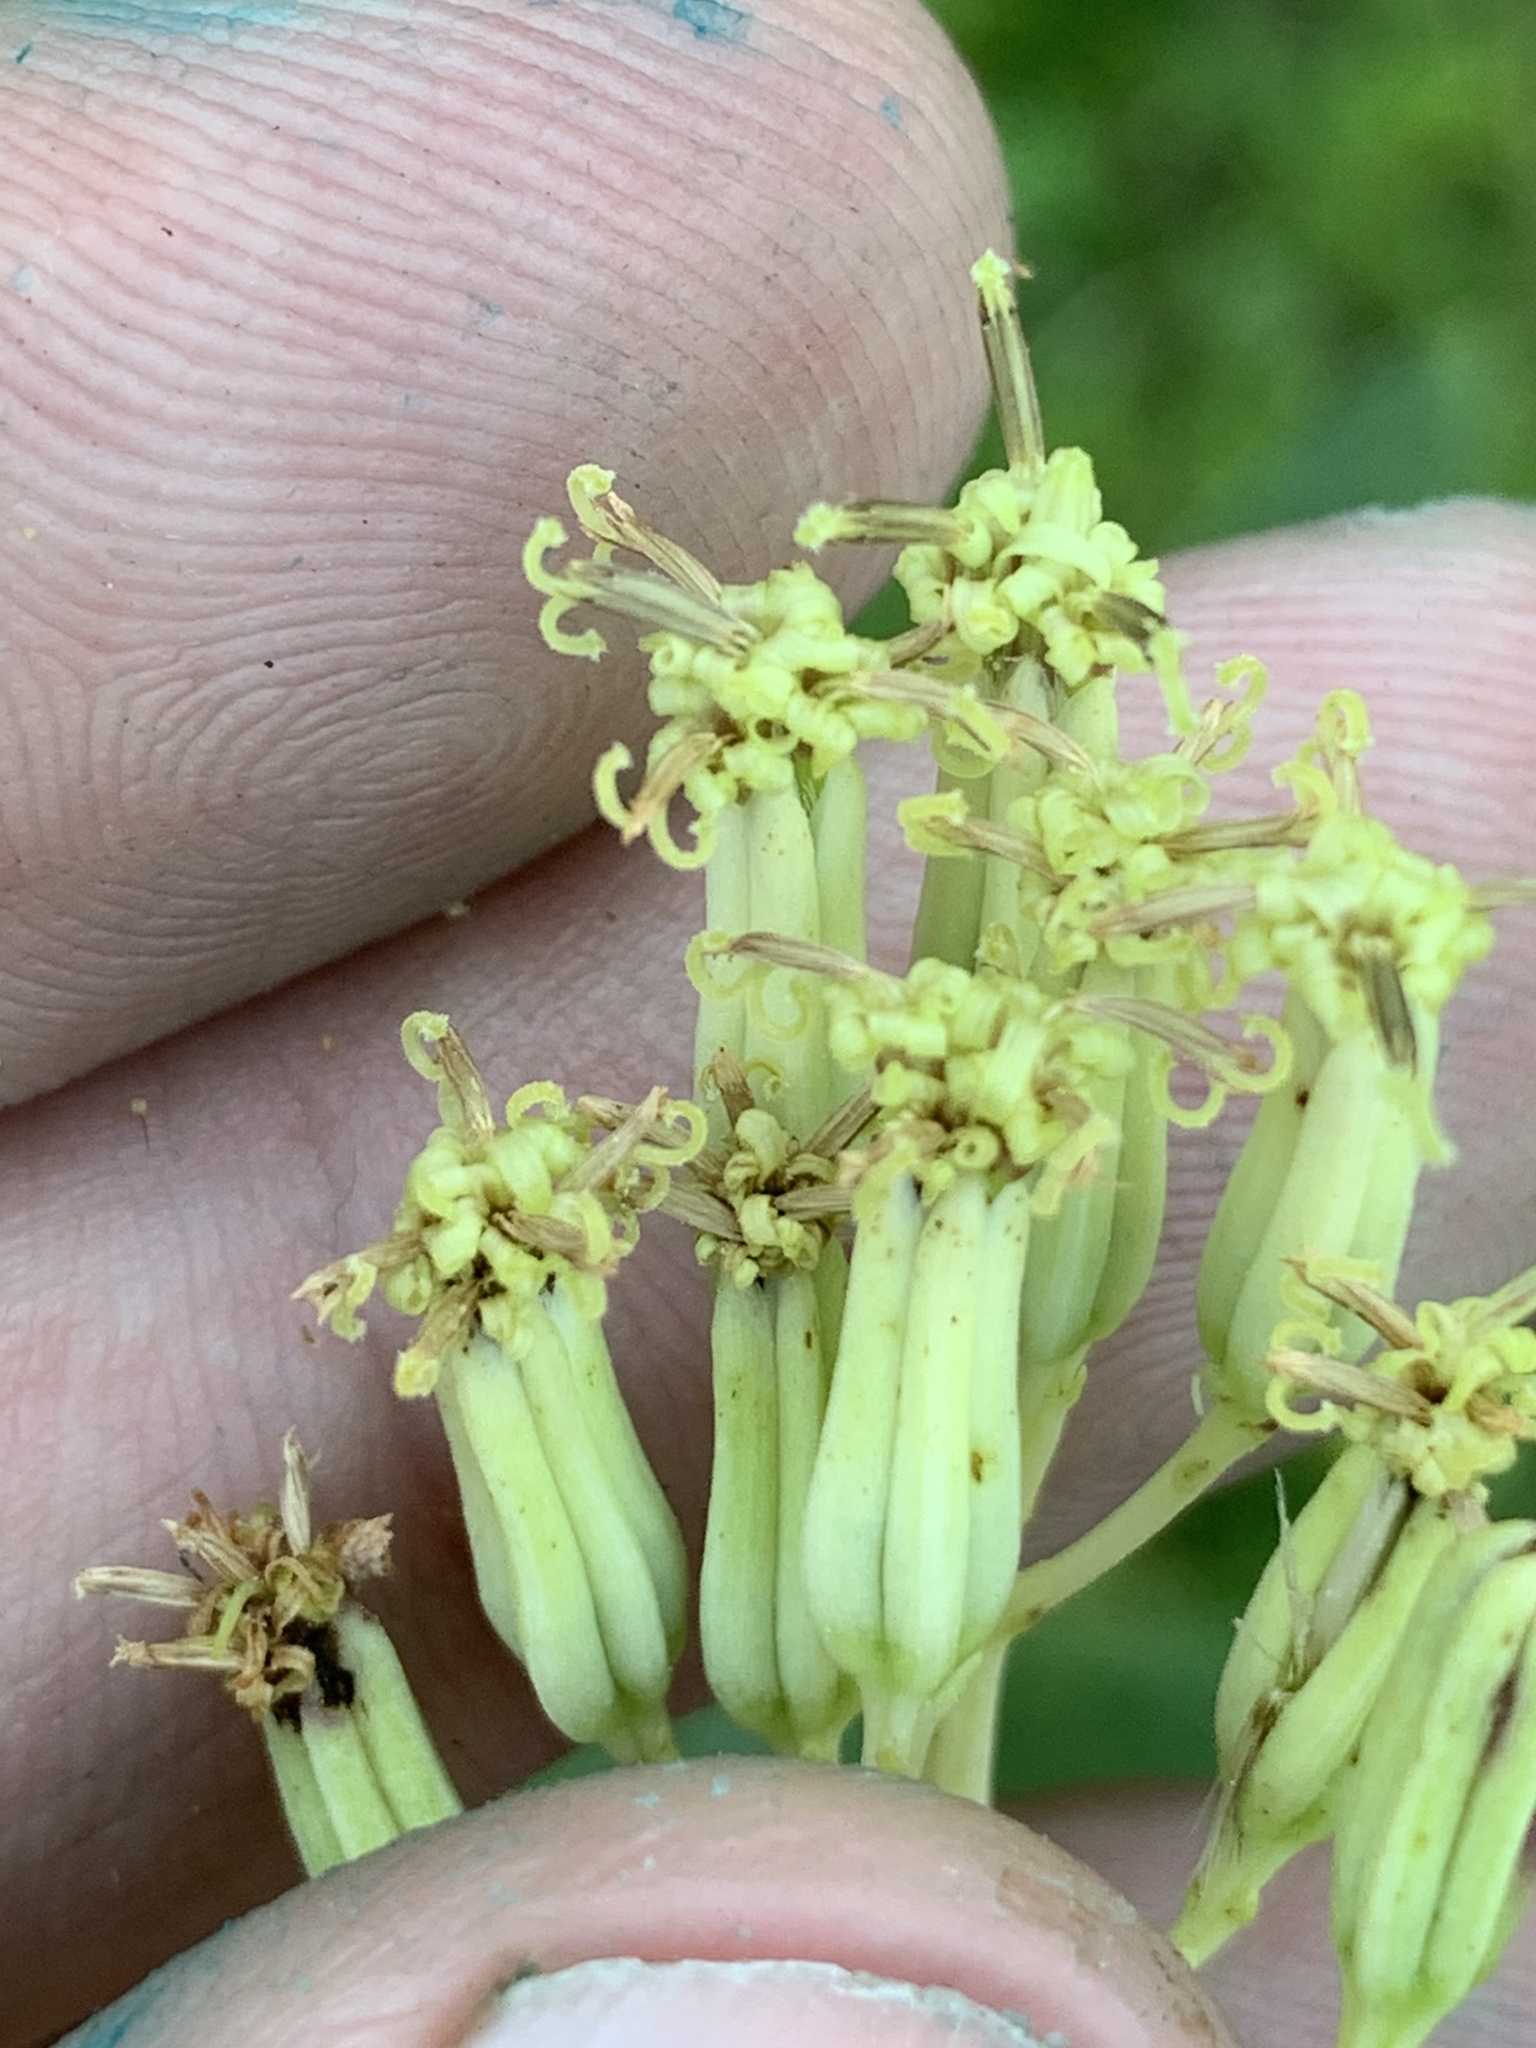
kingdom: Plantae
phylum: Tracheophyta
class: Magnoliopsida
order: Asterales
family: Asteraceae
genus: Arnoglossum
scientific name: Arnoglossum atriplicifolium
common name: Pale indian-plantain
